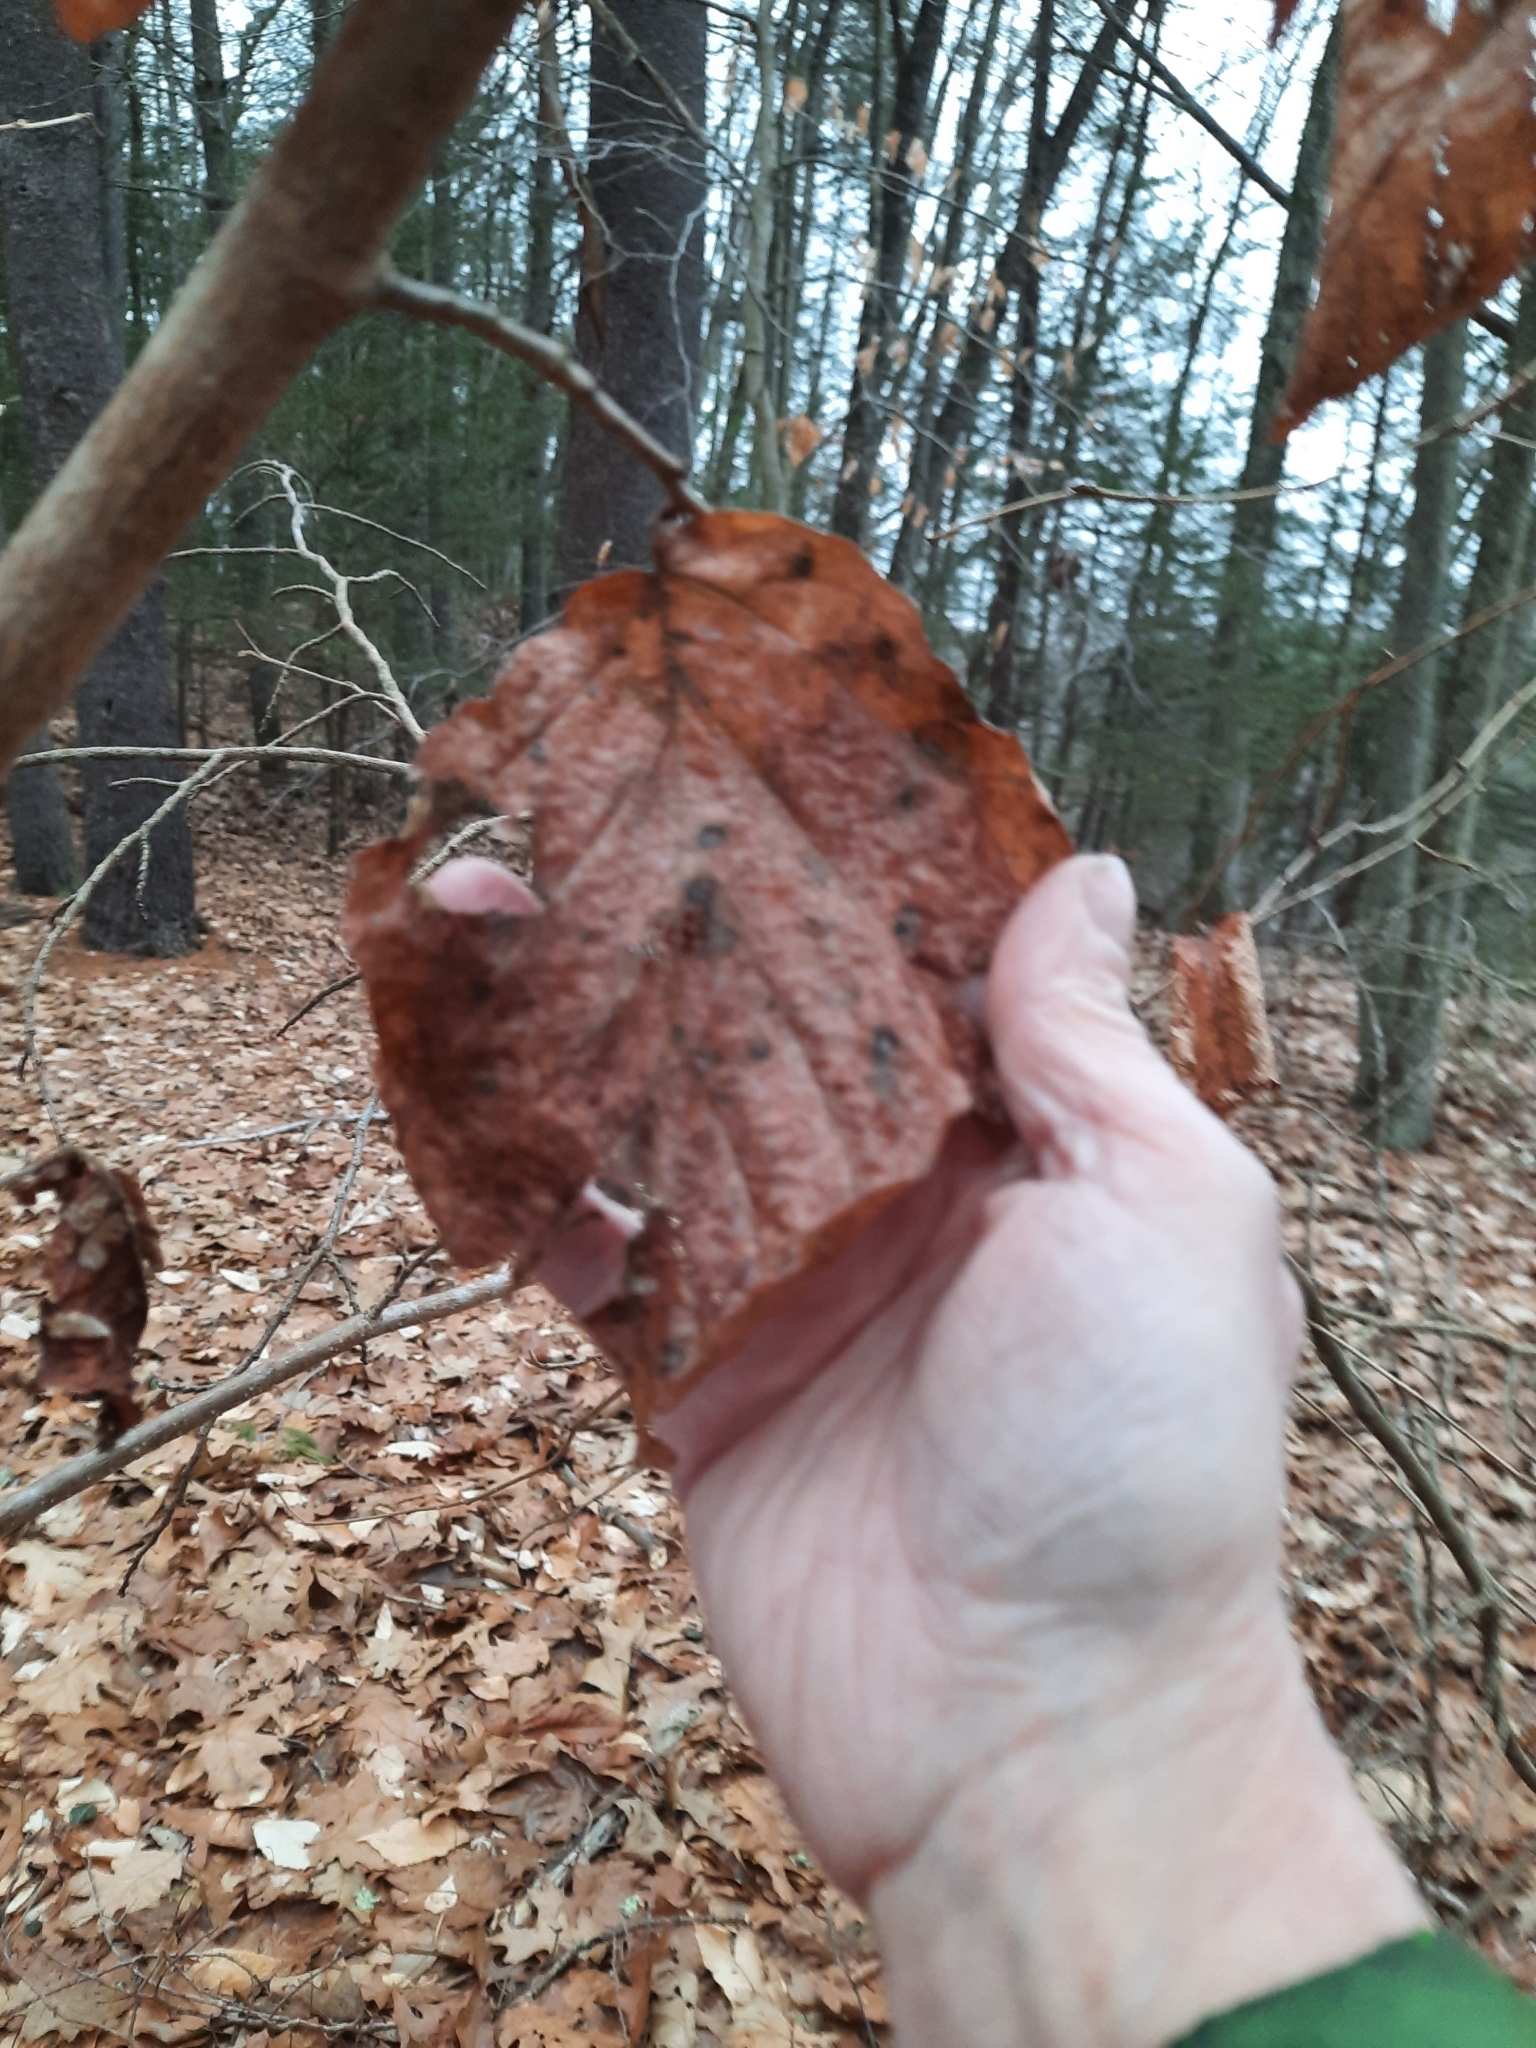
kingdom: Plantae
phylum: Tracheophyta
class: Magnoliopsida
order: Saxifragales
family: Hamamelidaceae
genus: Hamamelis
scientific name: Hamamelis virginiana
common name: Witch-hazel
